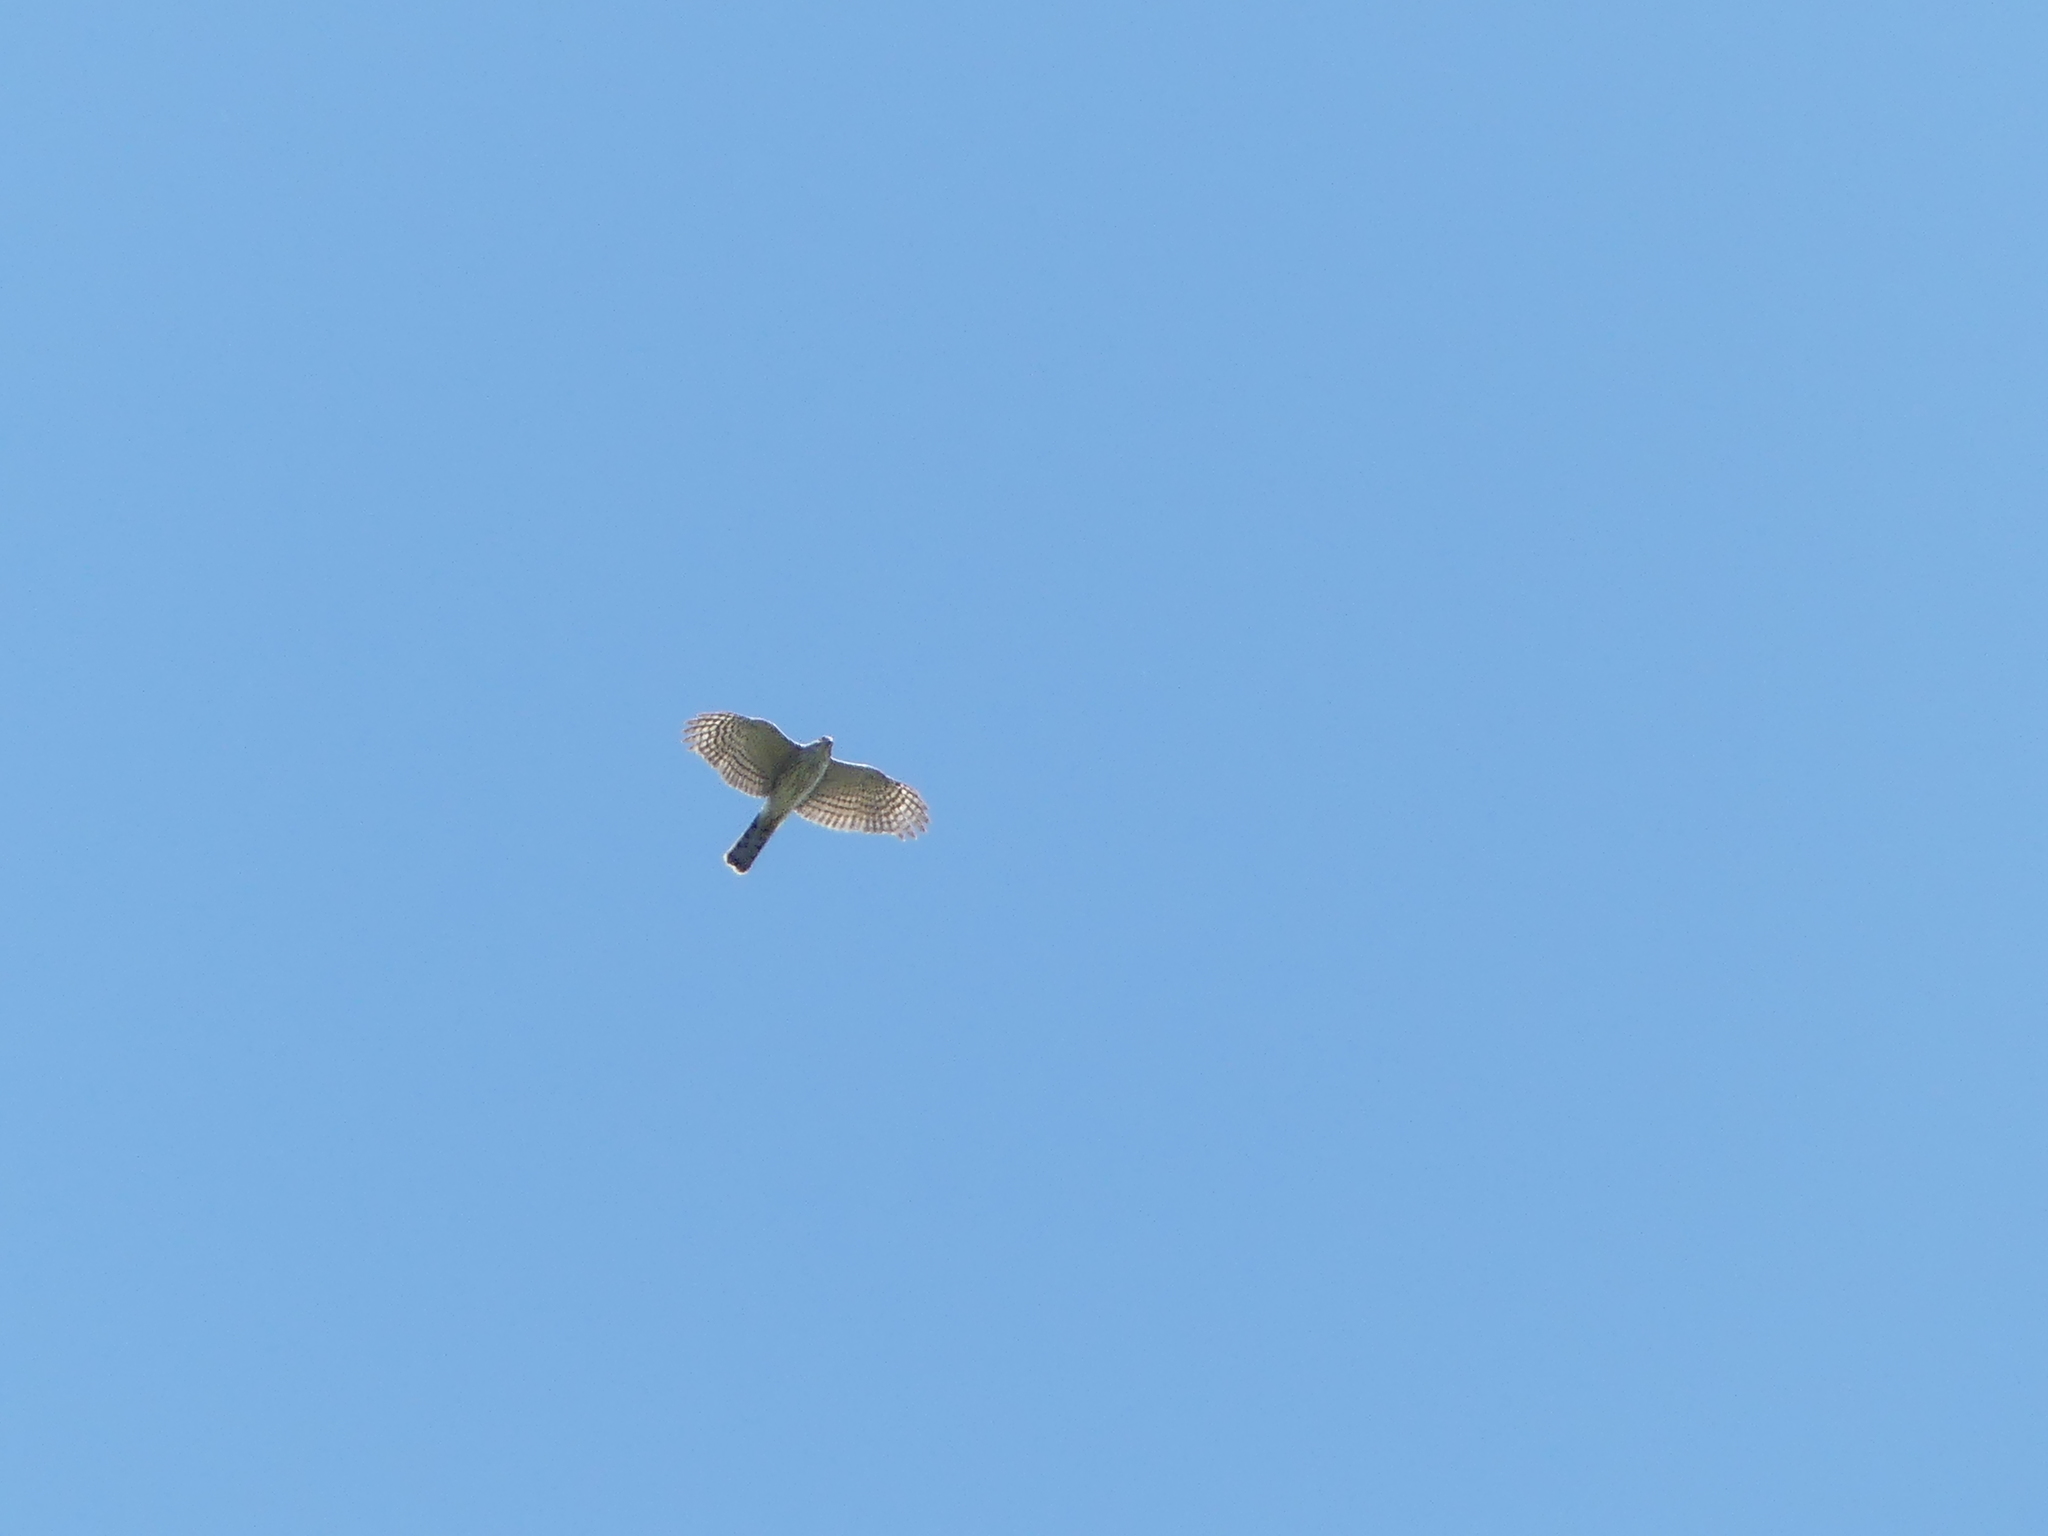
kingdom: Animalia
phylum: Chordata
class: Aves
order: Accipitriformes
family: Accipitridae
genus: Accipiter
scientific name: Accipiter cooperii
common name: Cooper's hawk
